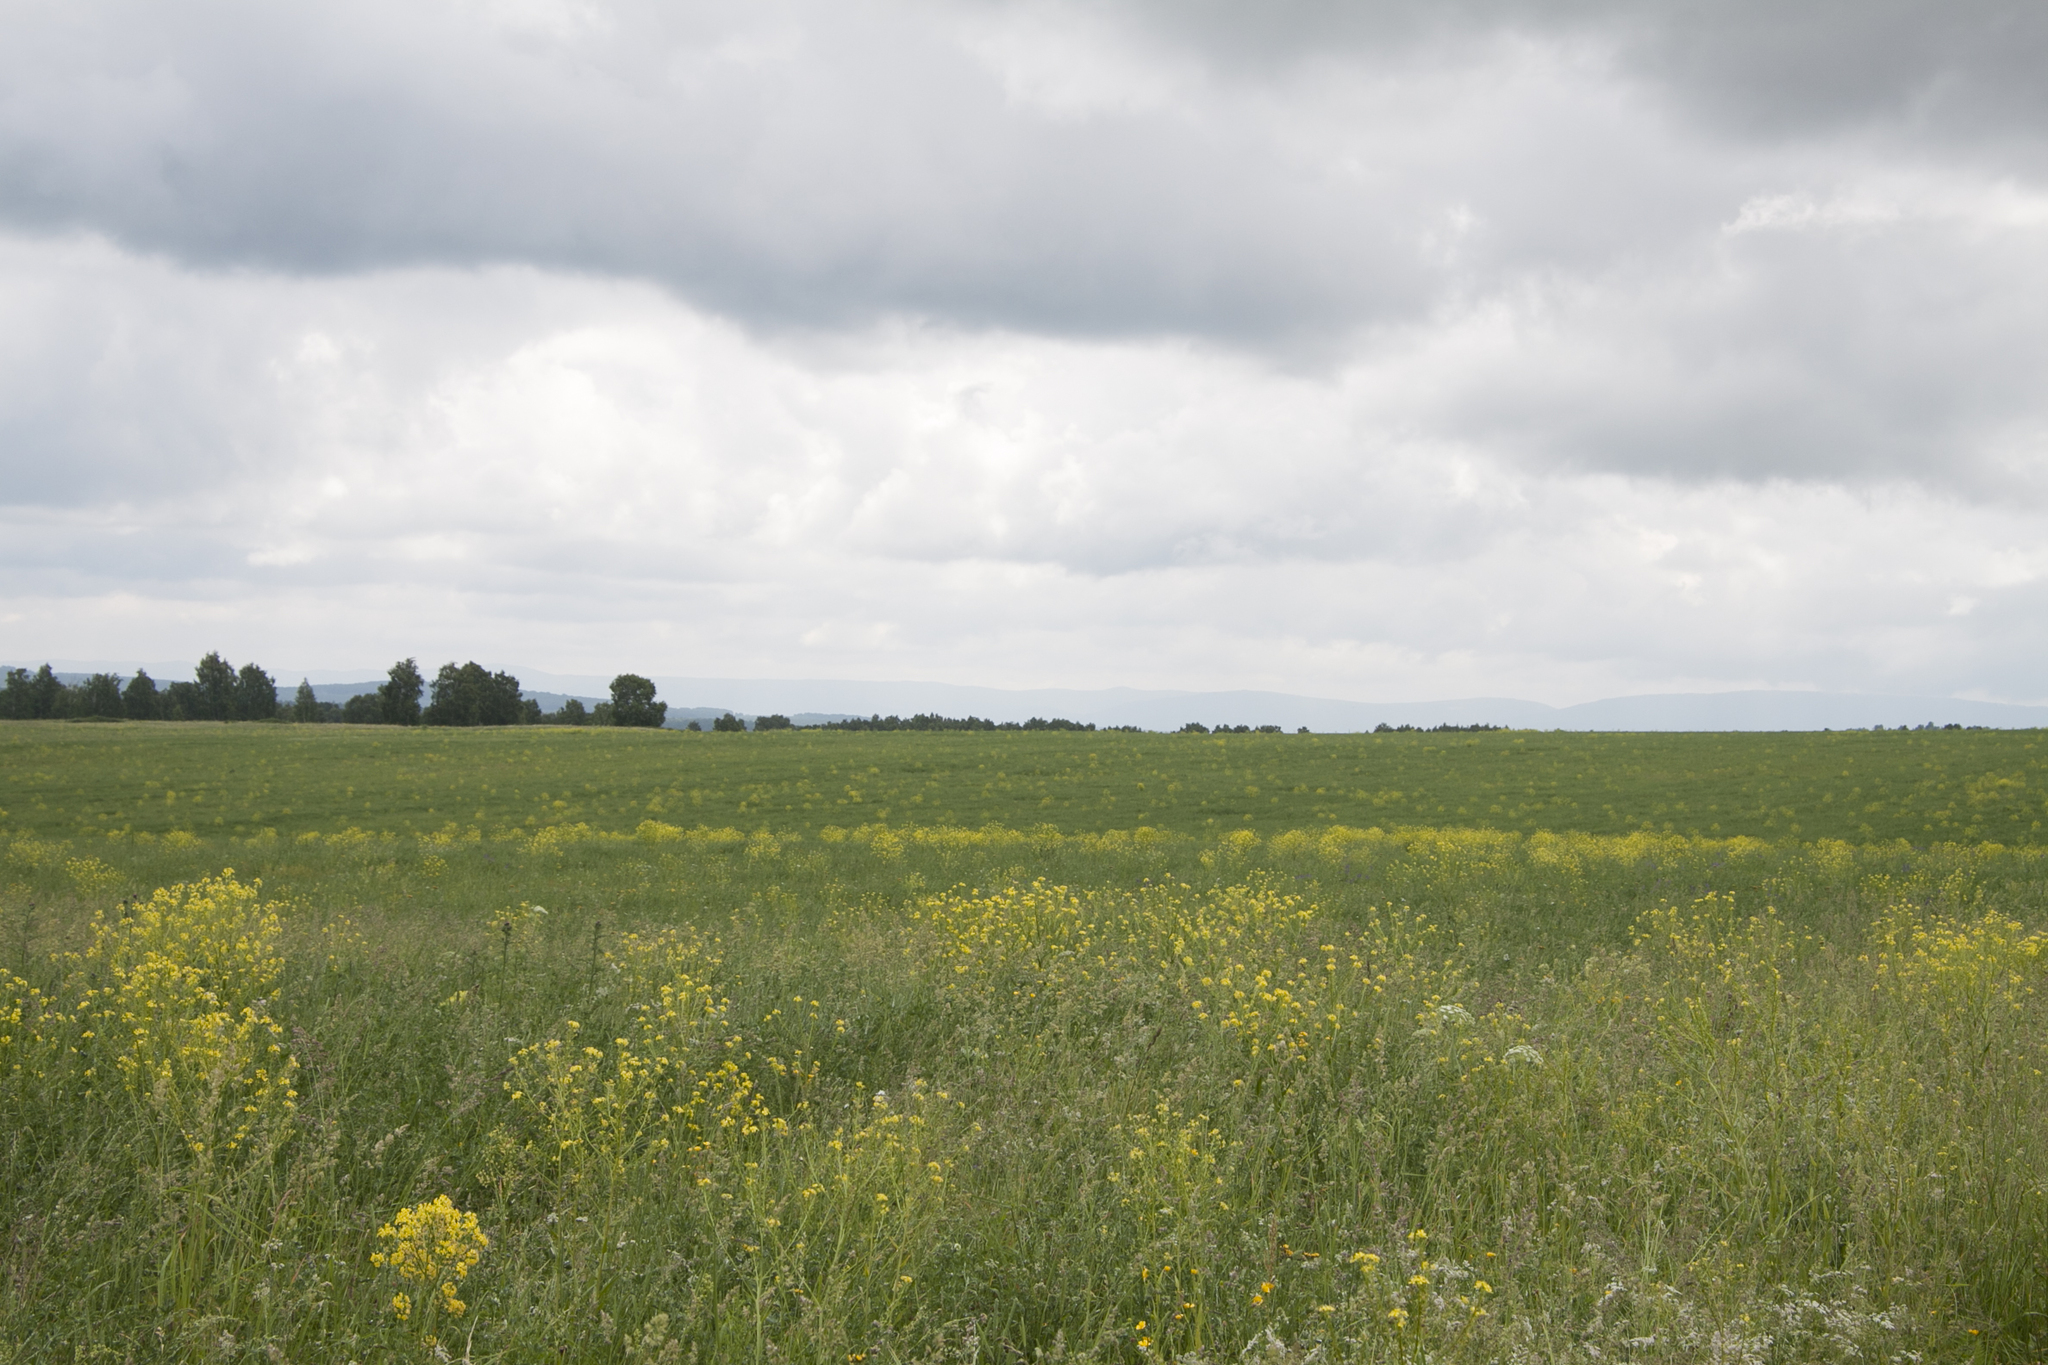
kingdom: Plantae
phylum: Tracheophyta
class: Magnoliopsida
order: Brassicales
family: Brassicaceae
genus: Bunias
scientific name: Bunias orientalis
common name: Warty-cabbage
